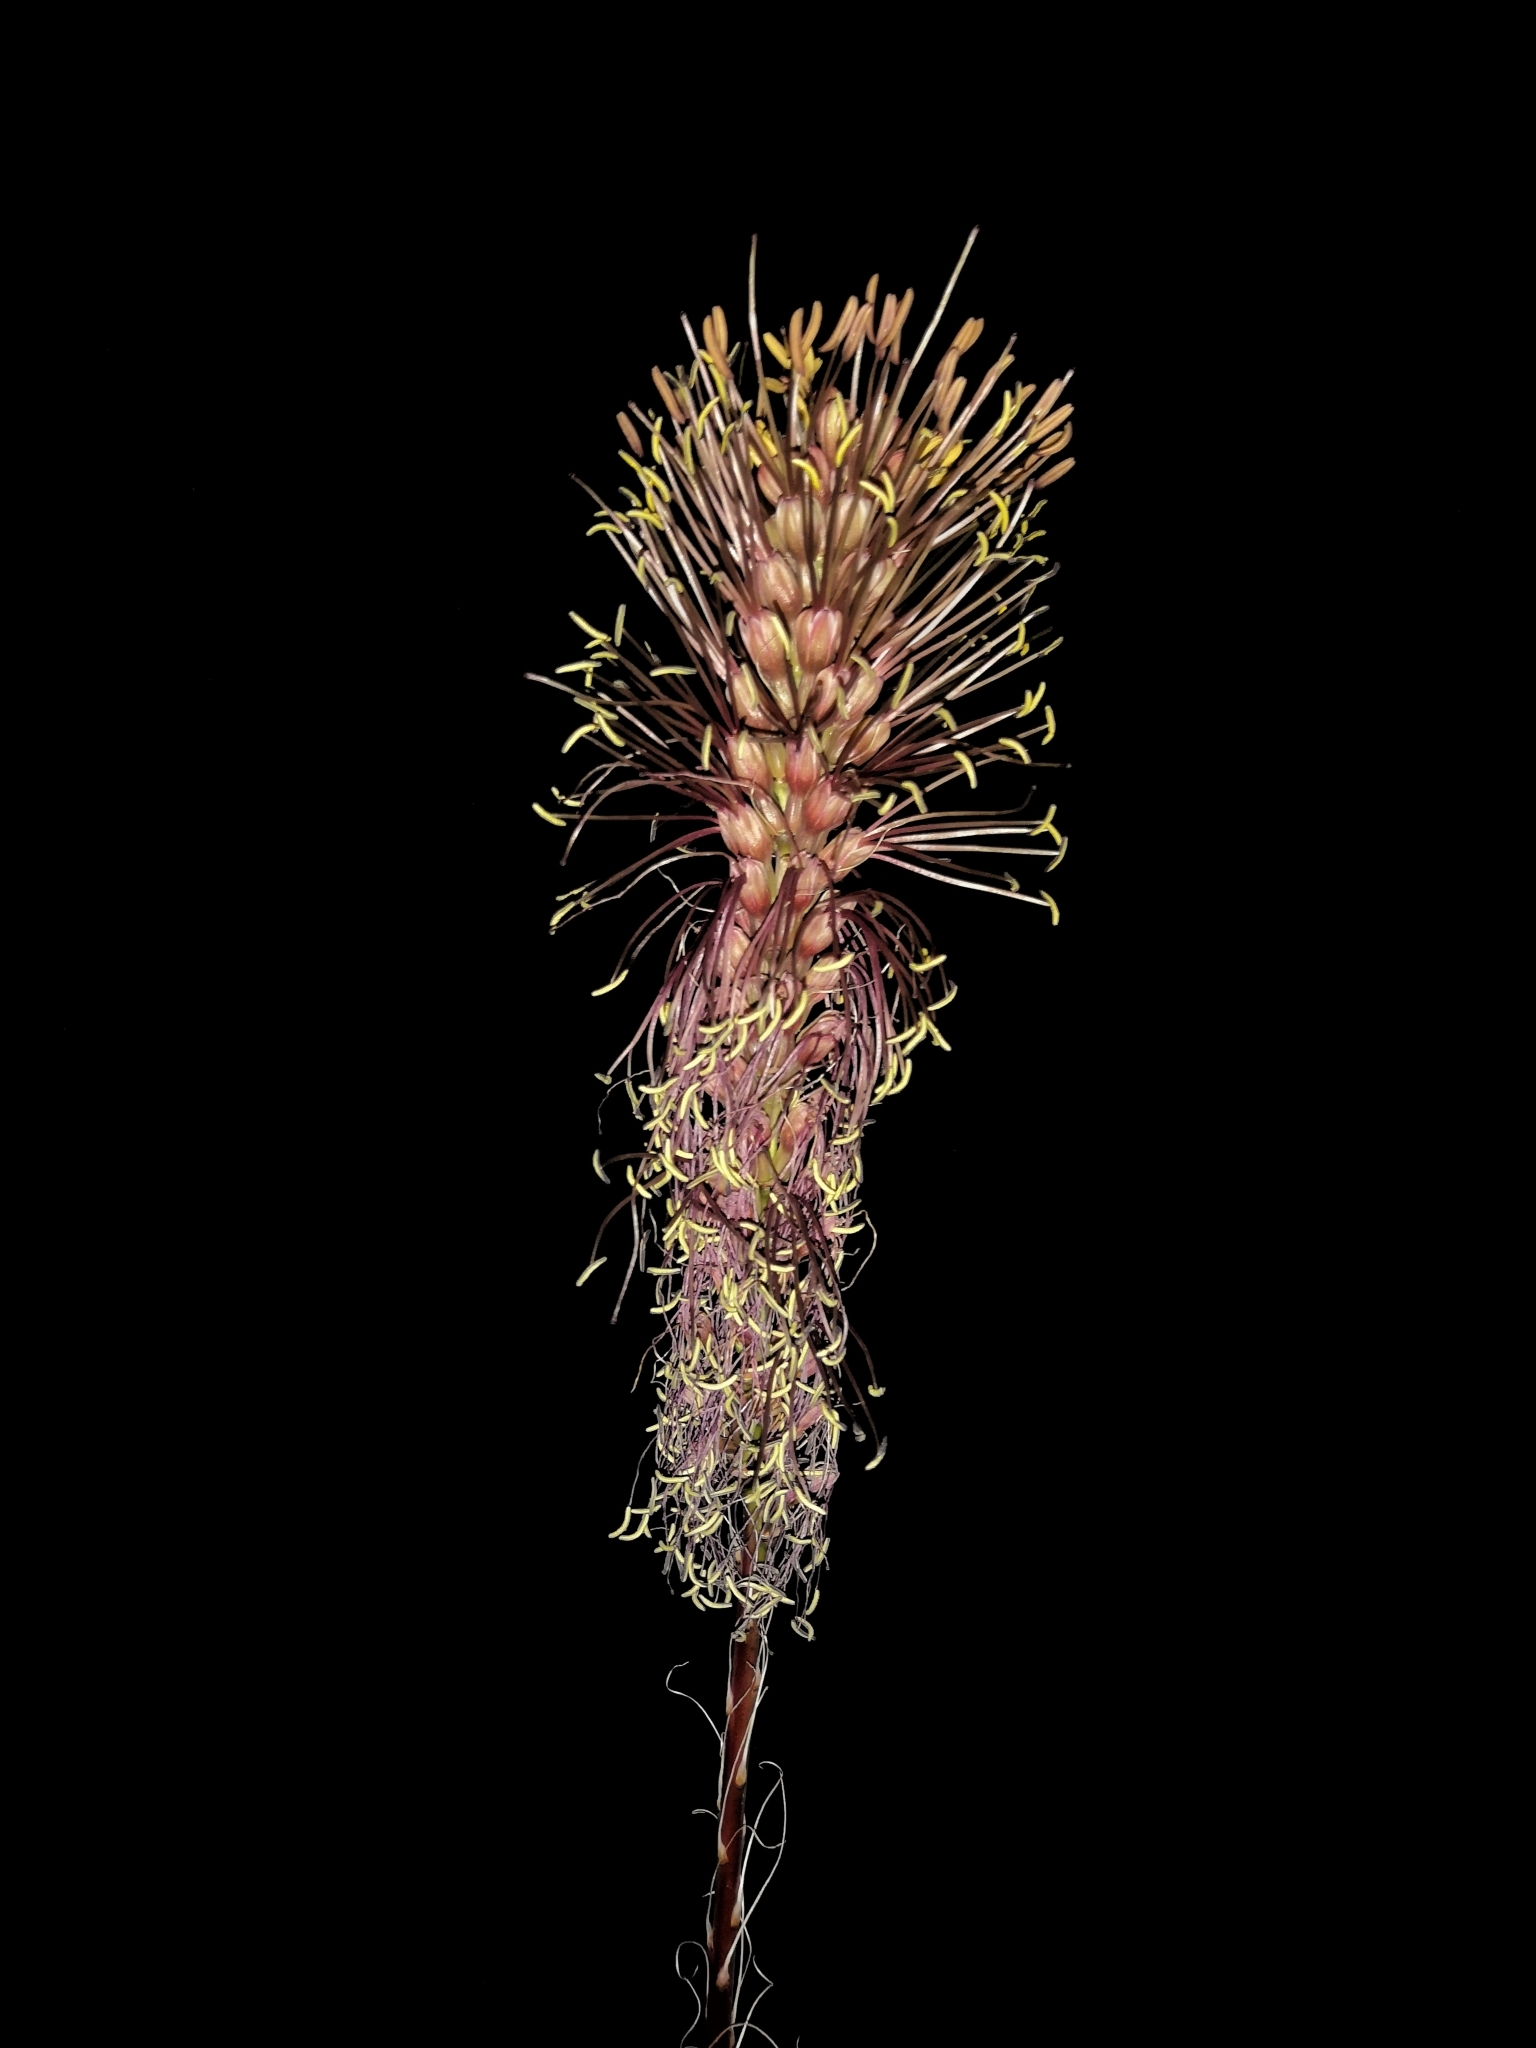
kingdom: Plantae
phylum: Tracheophyta
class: Liliopsida
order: Asparagales
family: Asparagaceae
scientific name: Asparagaceae
